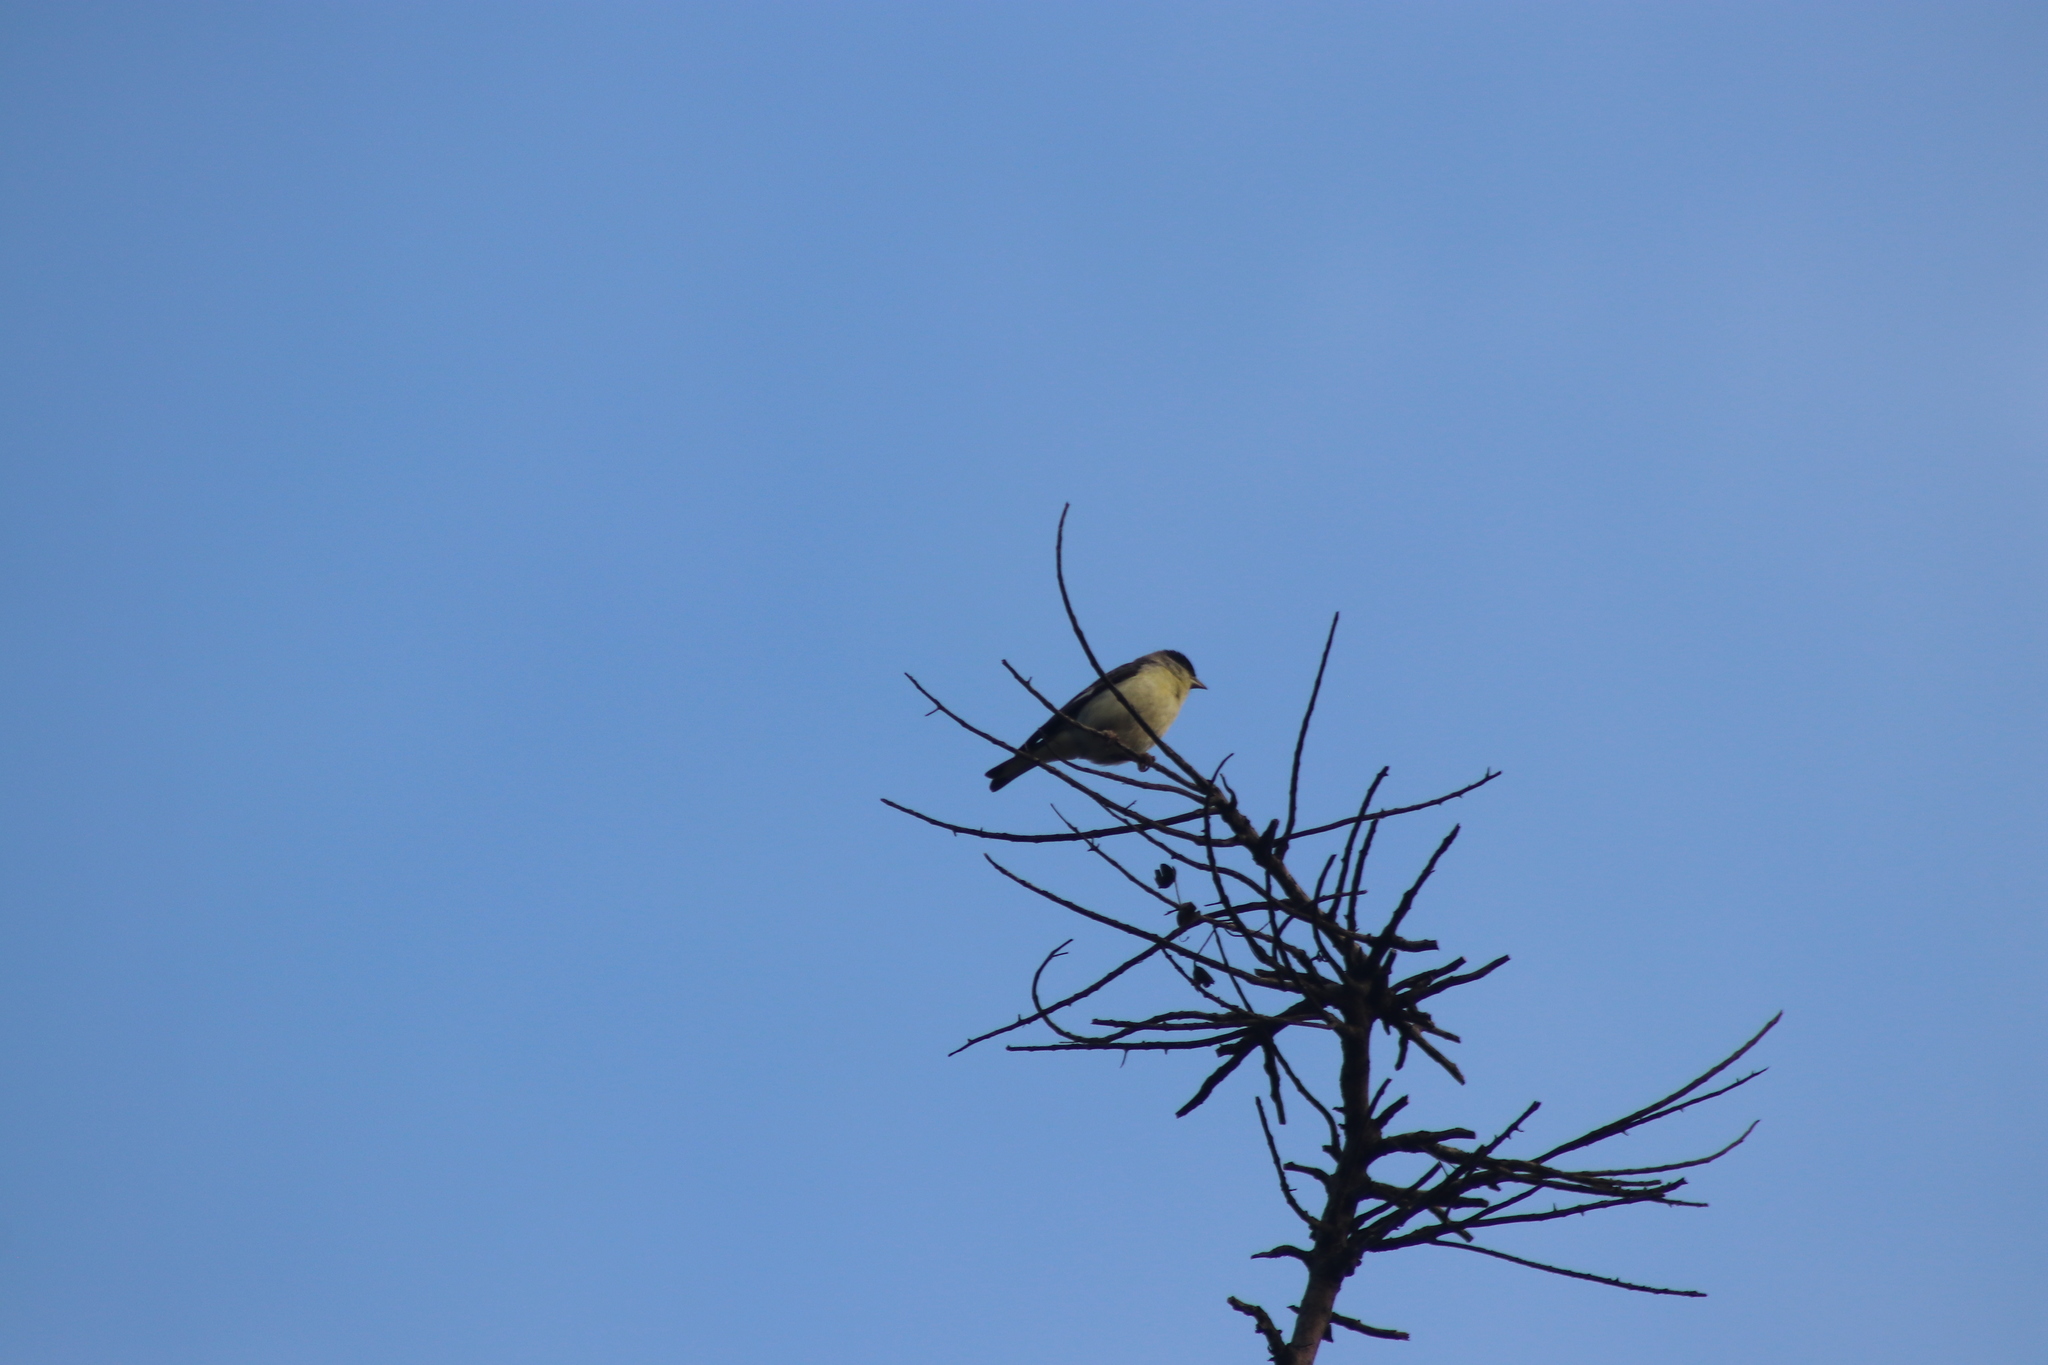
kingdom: Animalia
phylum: Chordata
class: Aves
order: Passeriformes
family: Fringillidae
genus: Spinus
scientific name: Spinus psaltria
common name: Lesser goldfinch
